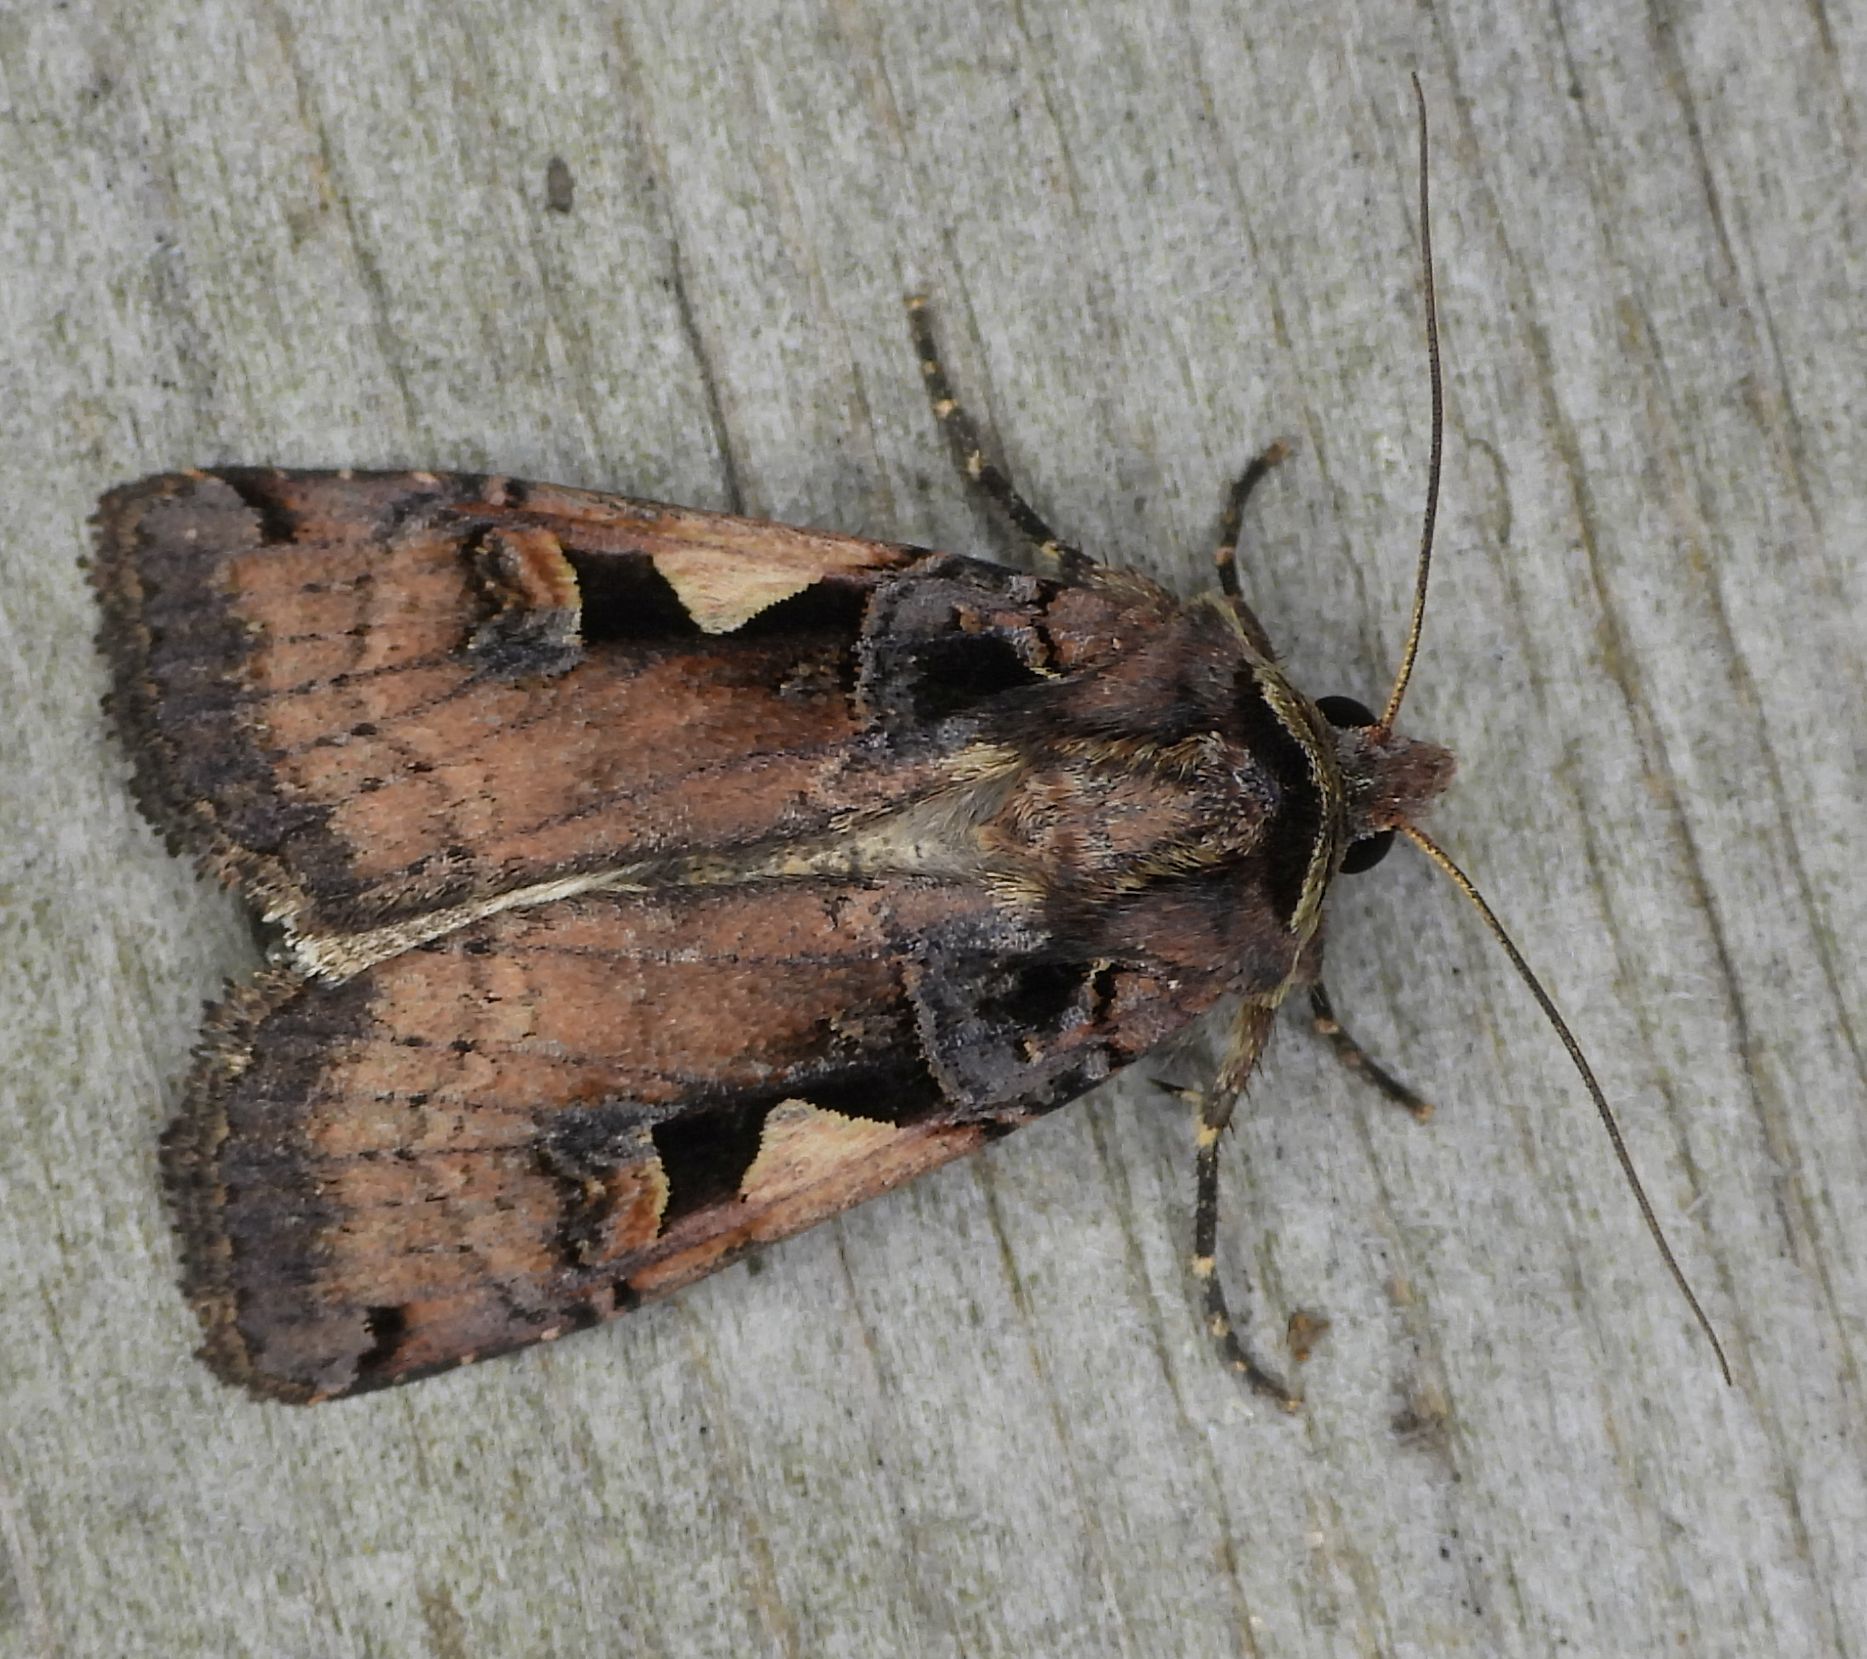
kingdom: Animalia
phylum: Arthropoda
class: Insecta
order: Lepidoptera
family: Noctuidae
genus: Xestia
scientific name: Xestia
